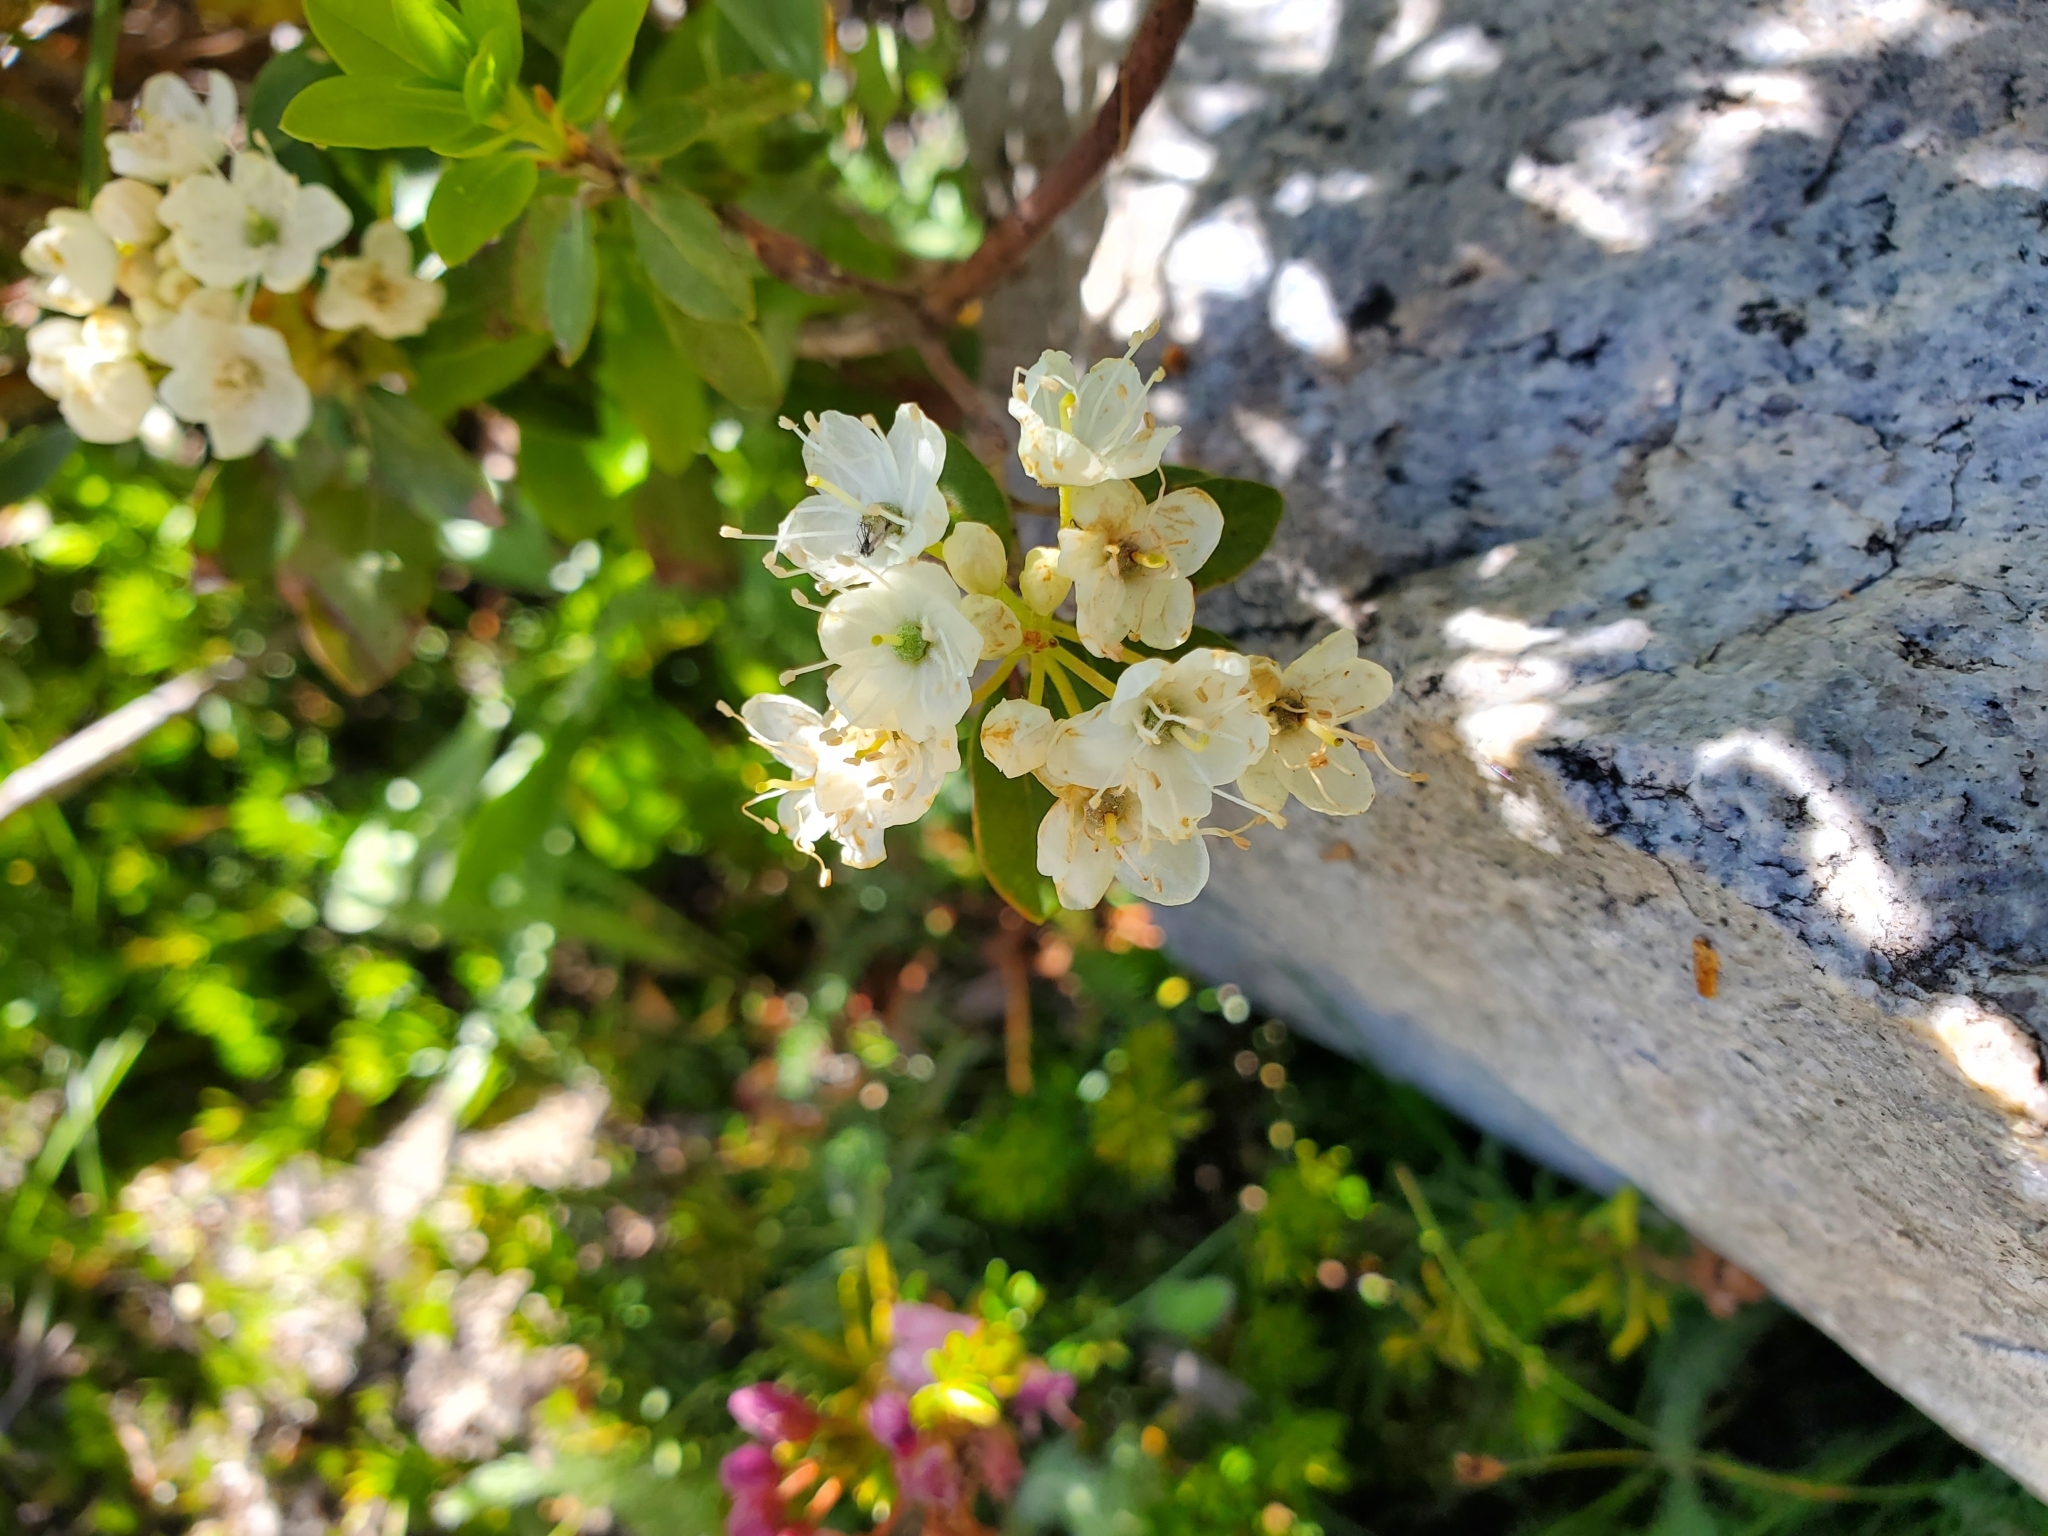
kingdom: Plantae
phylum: Tracheophyta
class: Magnoliopsida
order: Ericales
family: Ericaceae
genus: Rhododendron
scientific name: Rhododendron columbianum
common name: Western labrador tea
